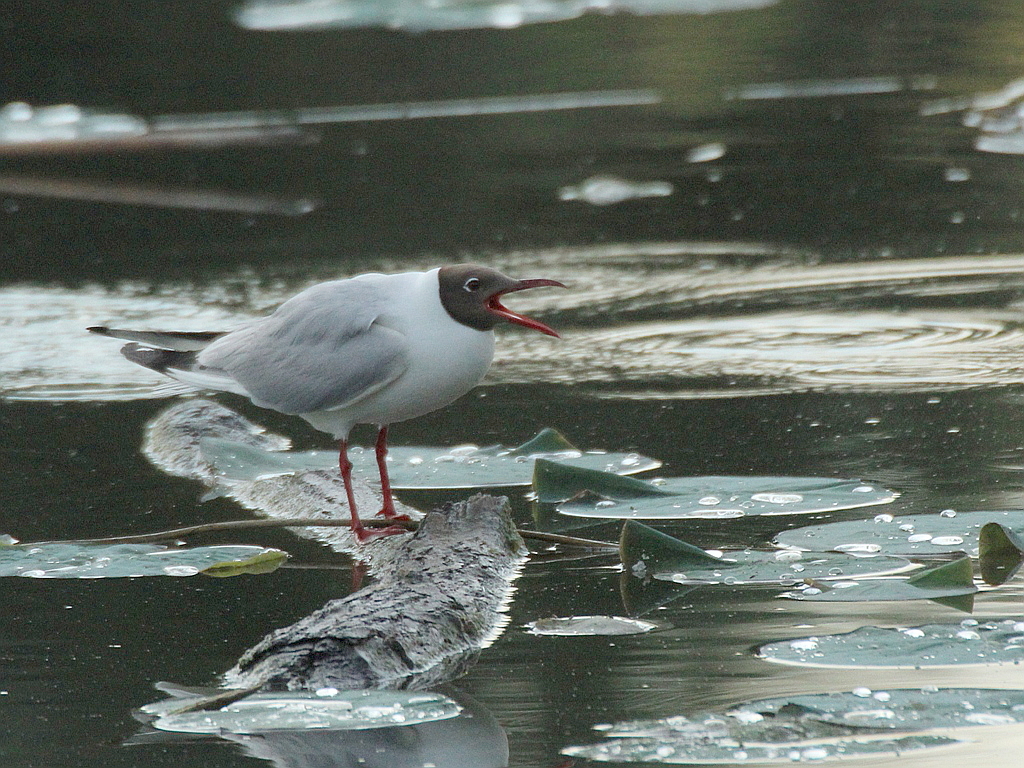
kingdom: Animalia
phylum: Chordata
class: Aves
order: Charadriiformes
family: Laridae
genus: Chroicocephalus
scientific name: Chroicocephalus ridibundus
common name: Black-headed gull
